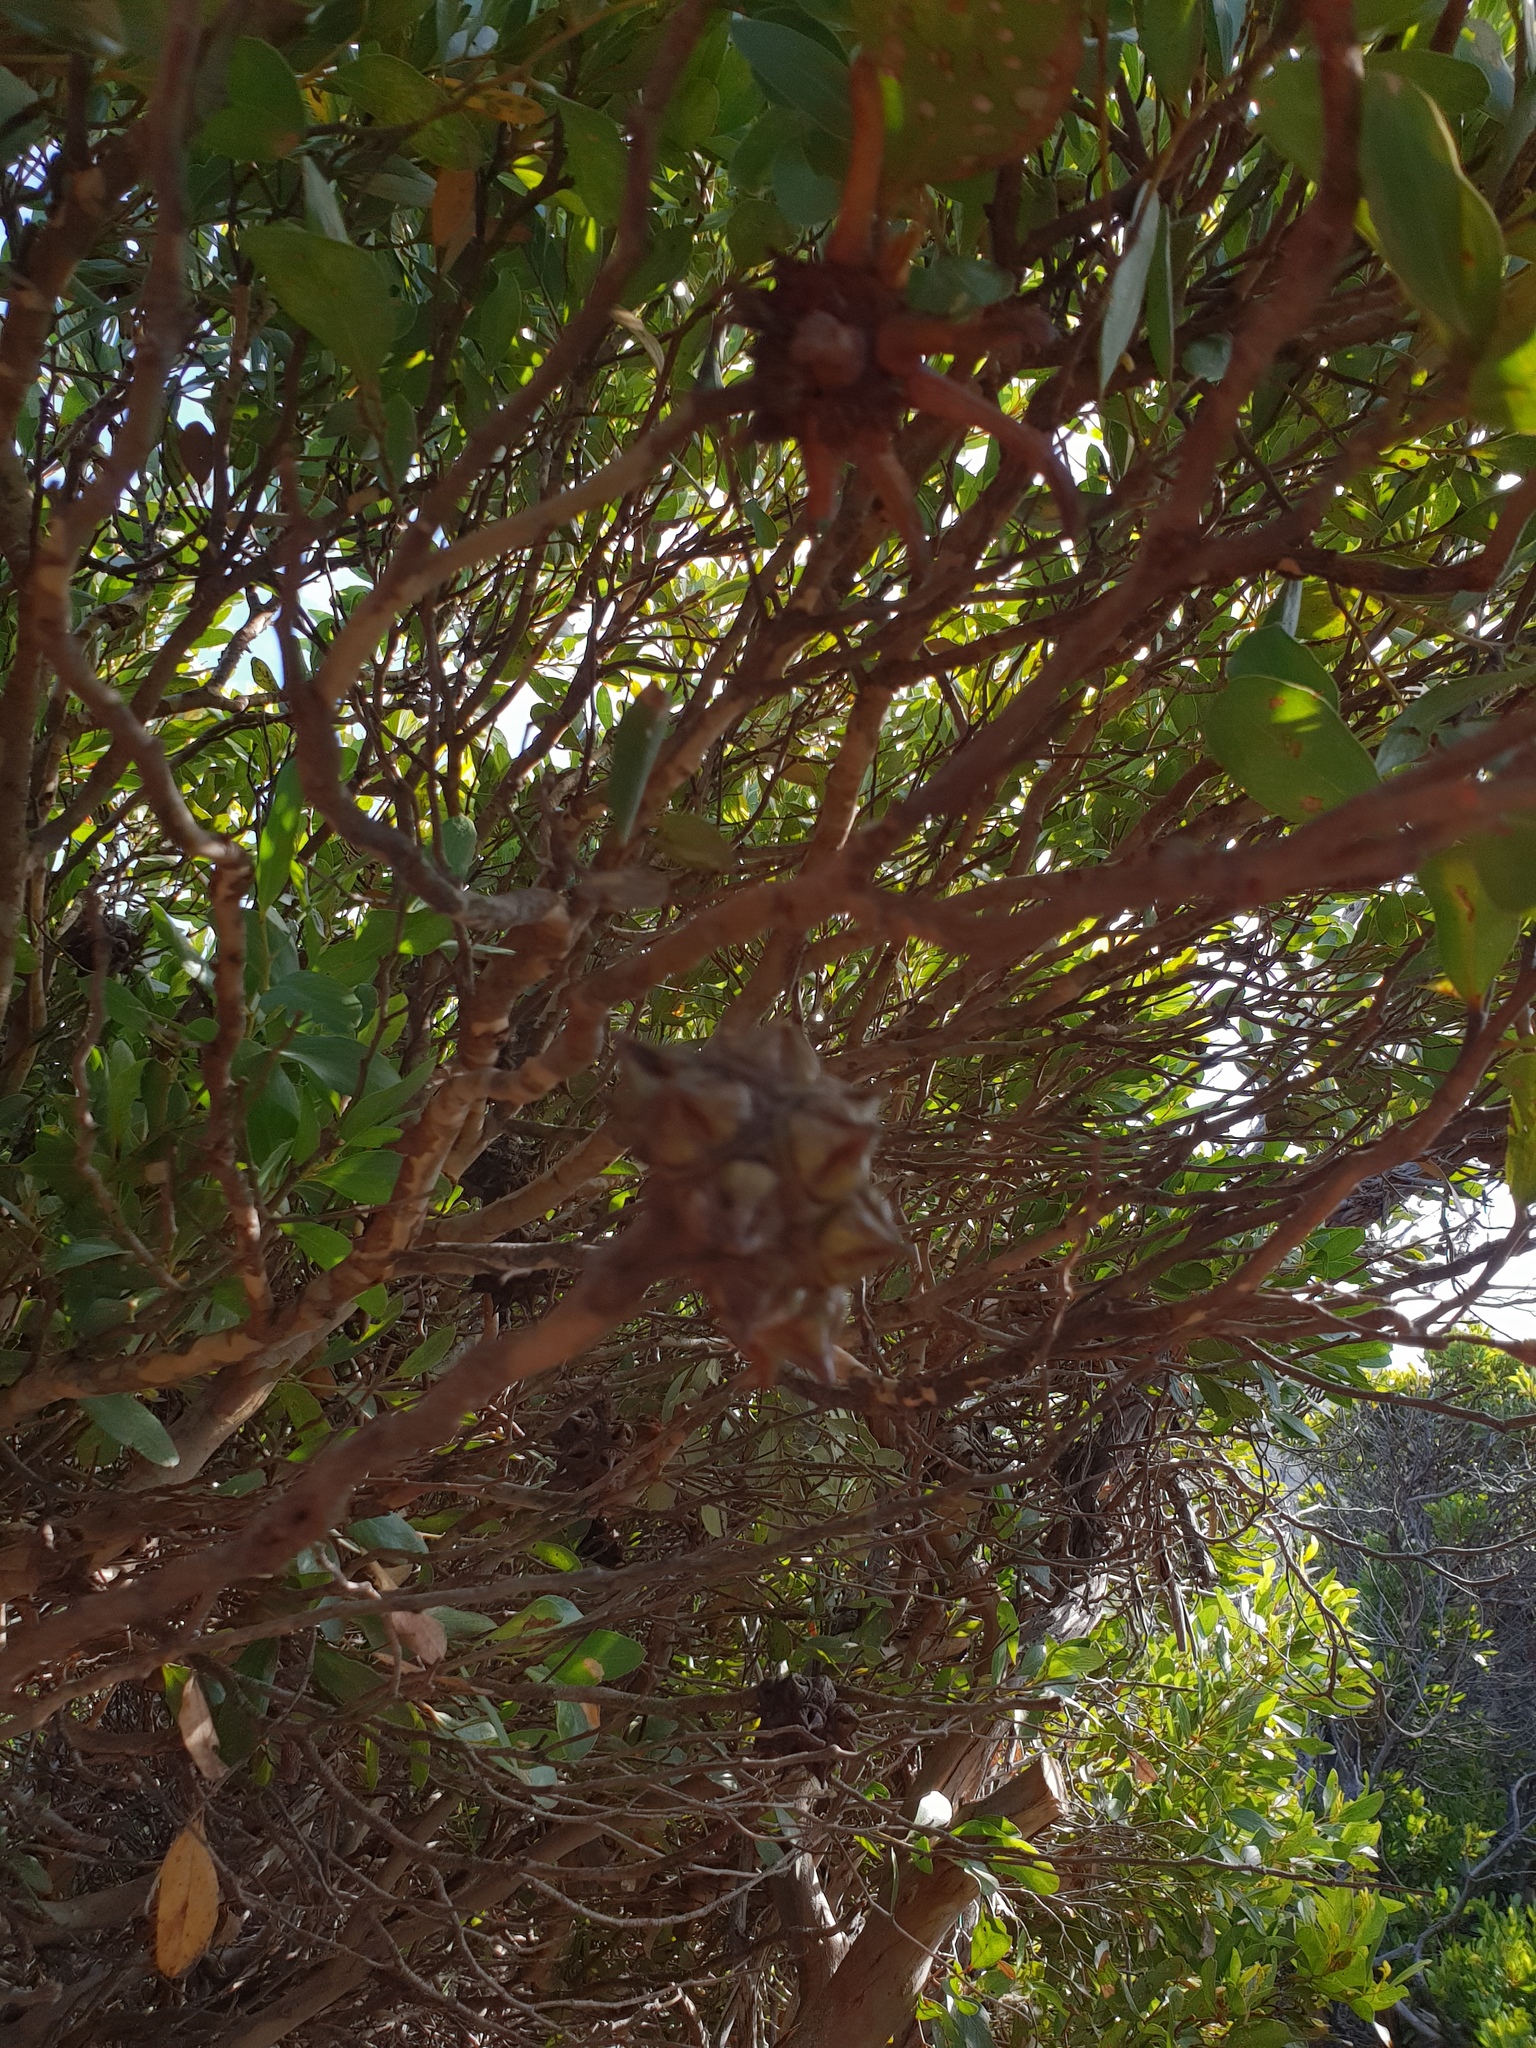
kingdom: Plantae
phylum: Tracheophyta
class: Magnoliopsida
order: Myrtales
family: Myrtaceae
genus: Eucalyptus
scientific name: Eucalyptus conferruminata
